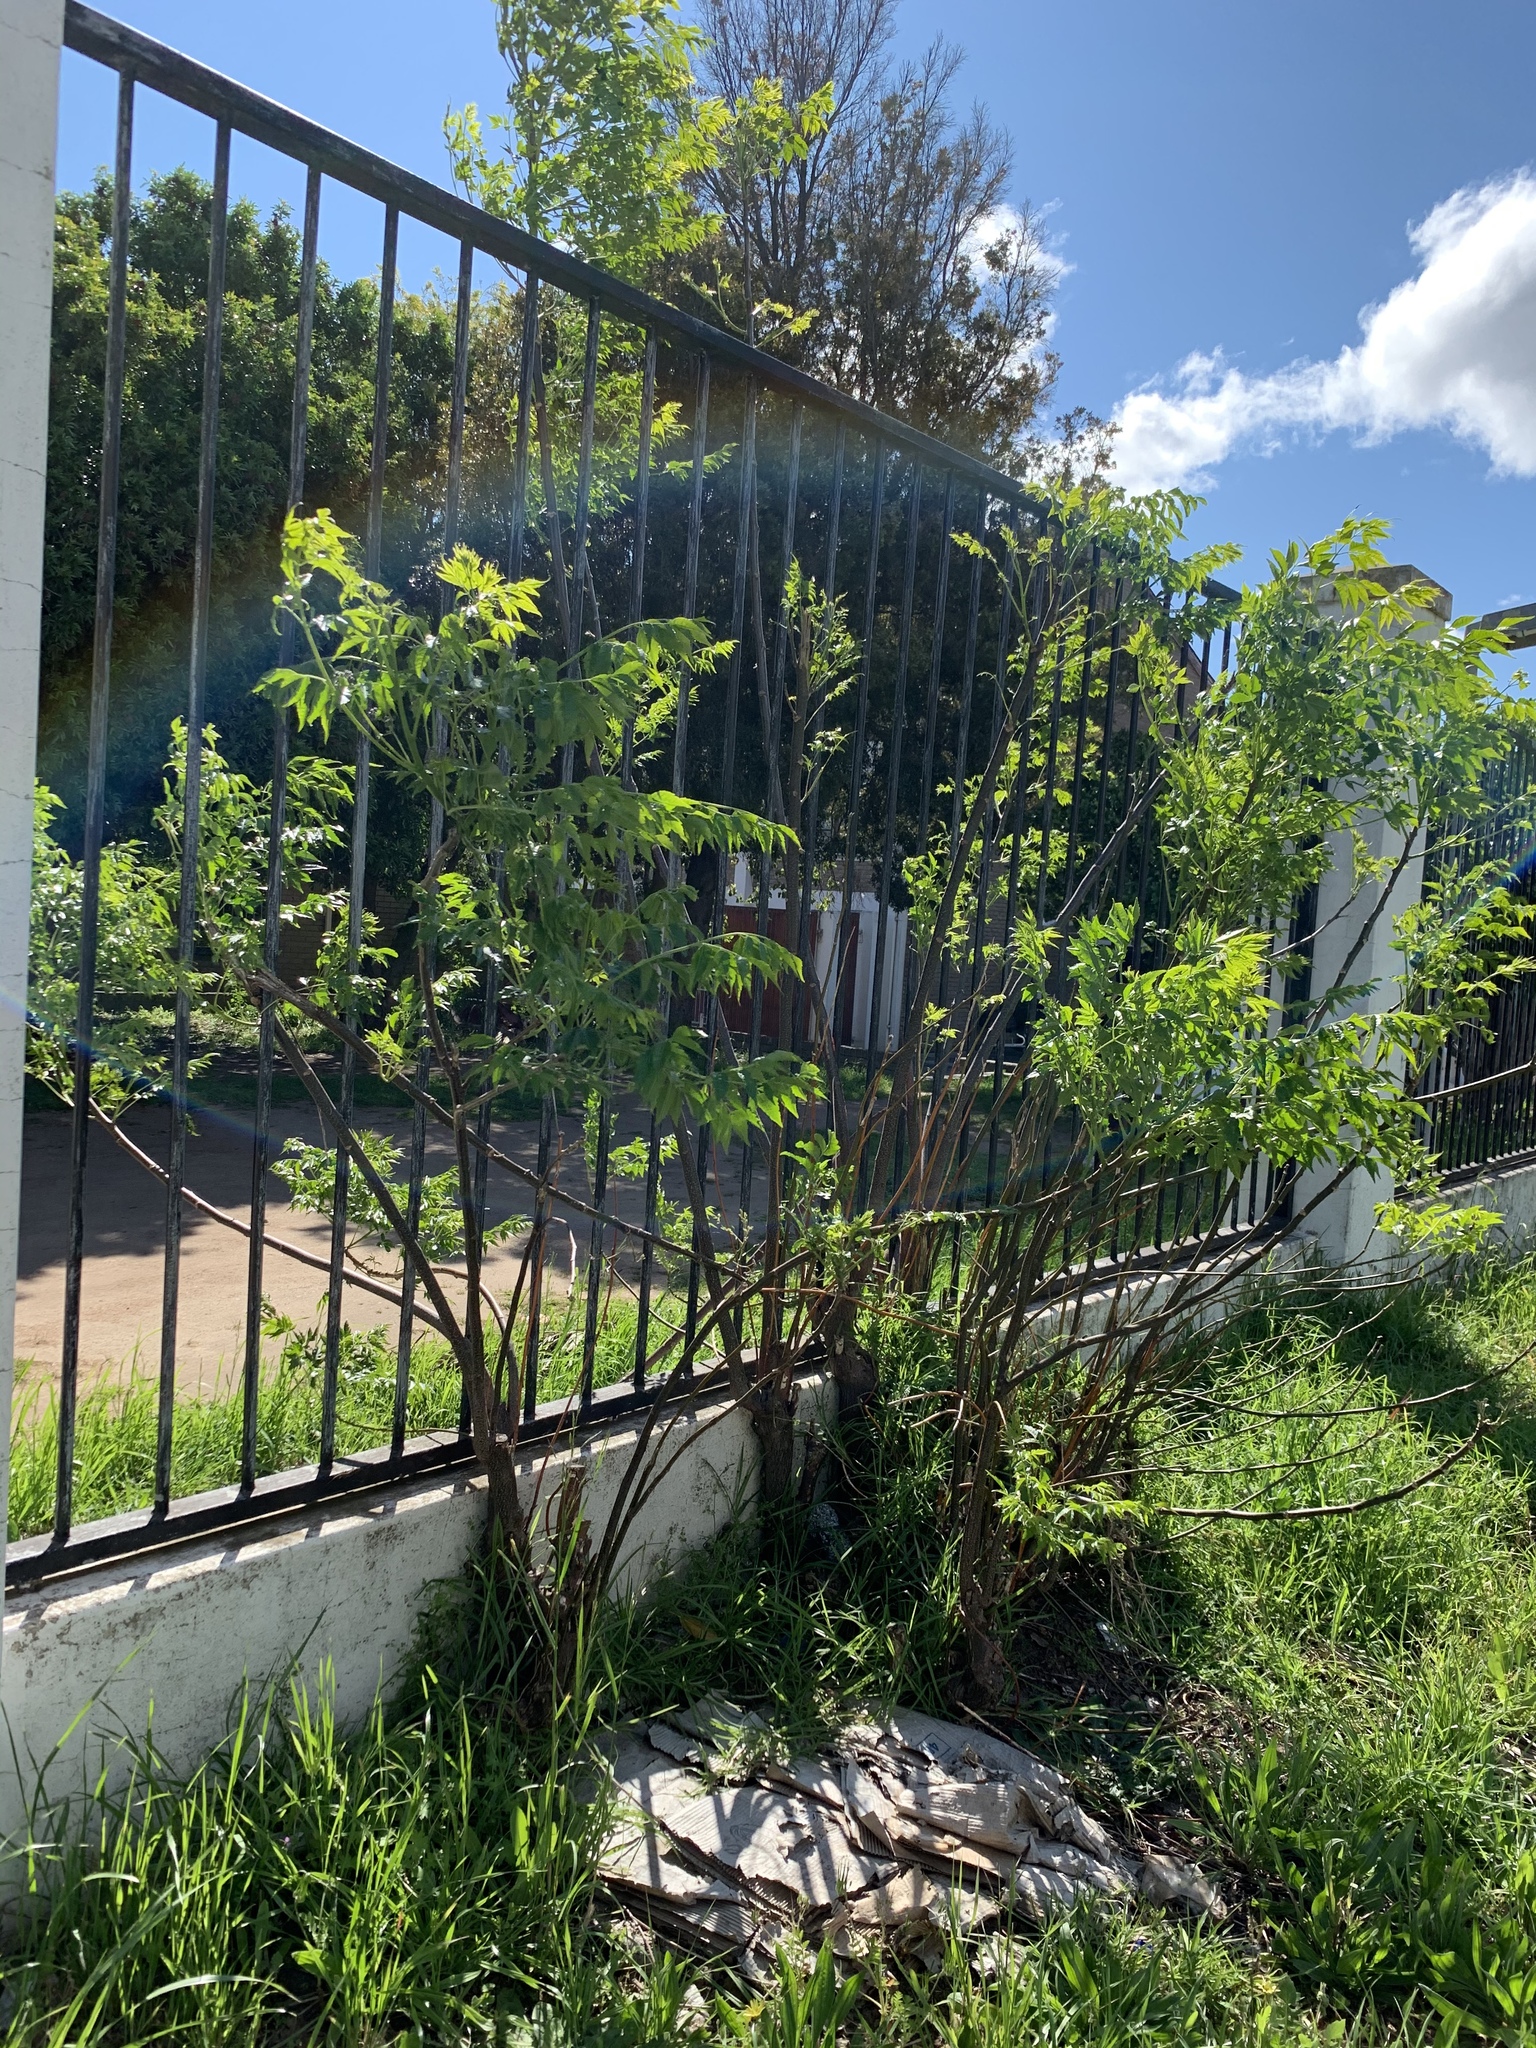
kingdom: Plantae
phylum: Tracheophyta
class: Magnoliopsida
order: Sapindales
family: Meliaceae
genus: Melia
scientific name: Melia azedarach
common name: Chinaberrytree
